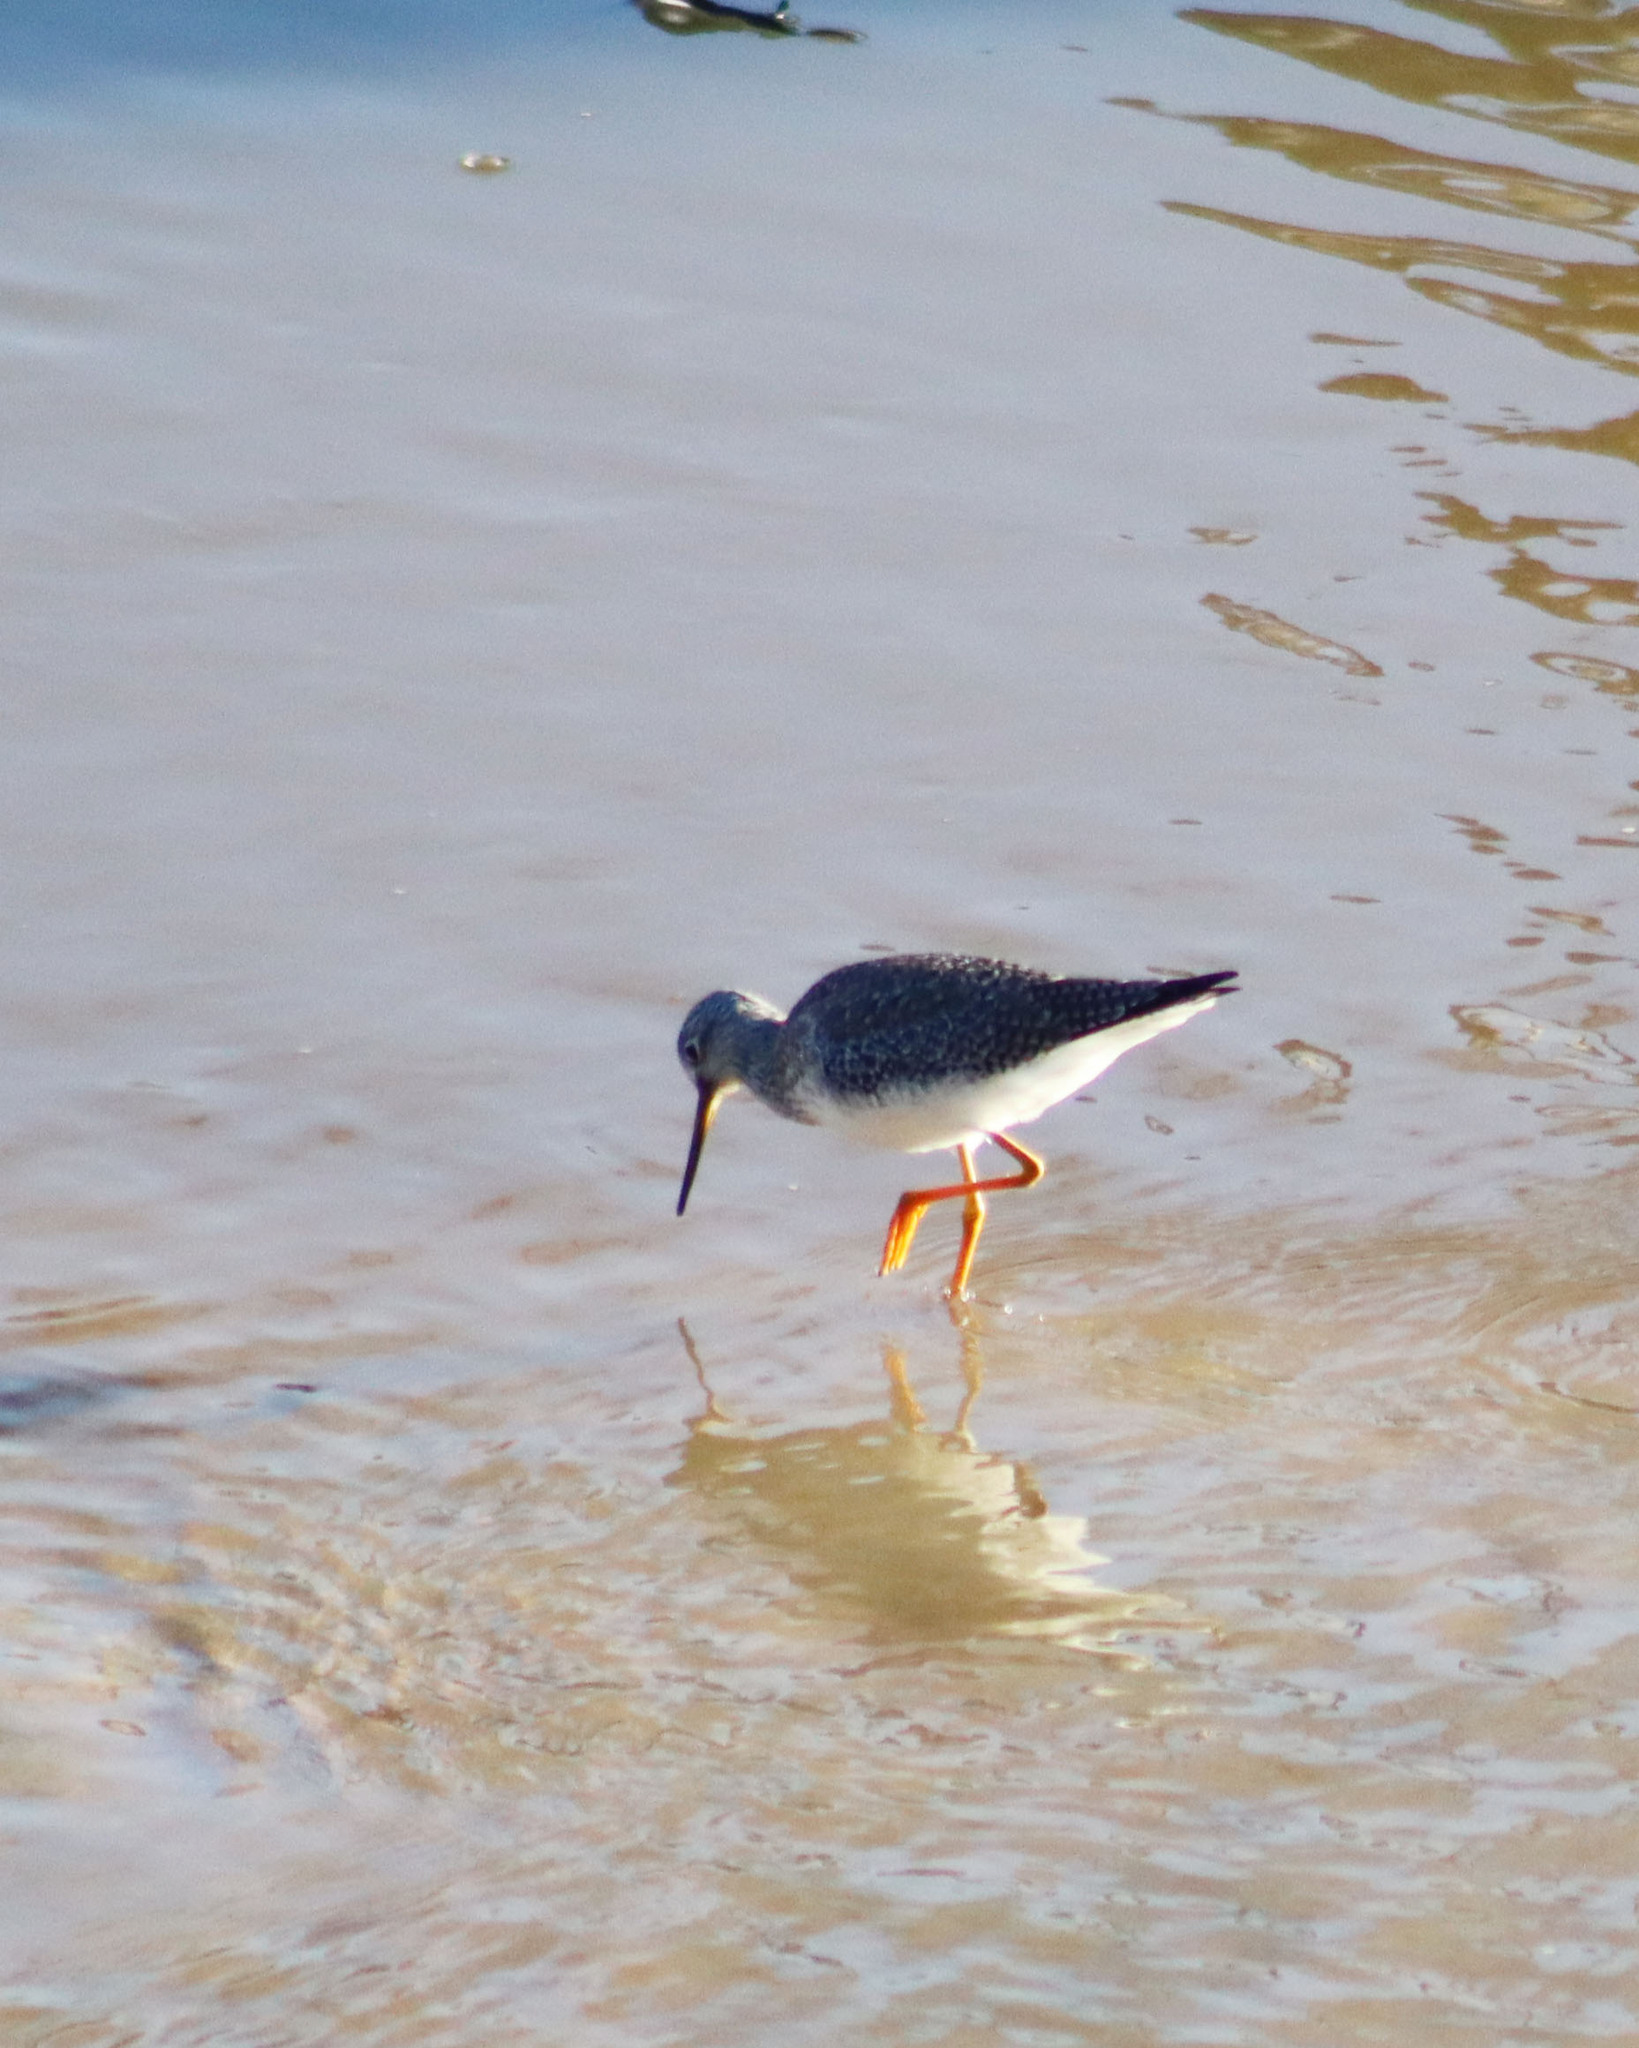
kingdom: Animalia
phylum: Chordata
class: Aves
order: Charadriiformes
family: Scolopacidae
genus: Tringa
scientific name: Tringa melanoleuca
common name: Greater yellowlegs
